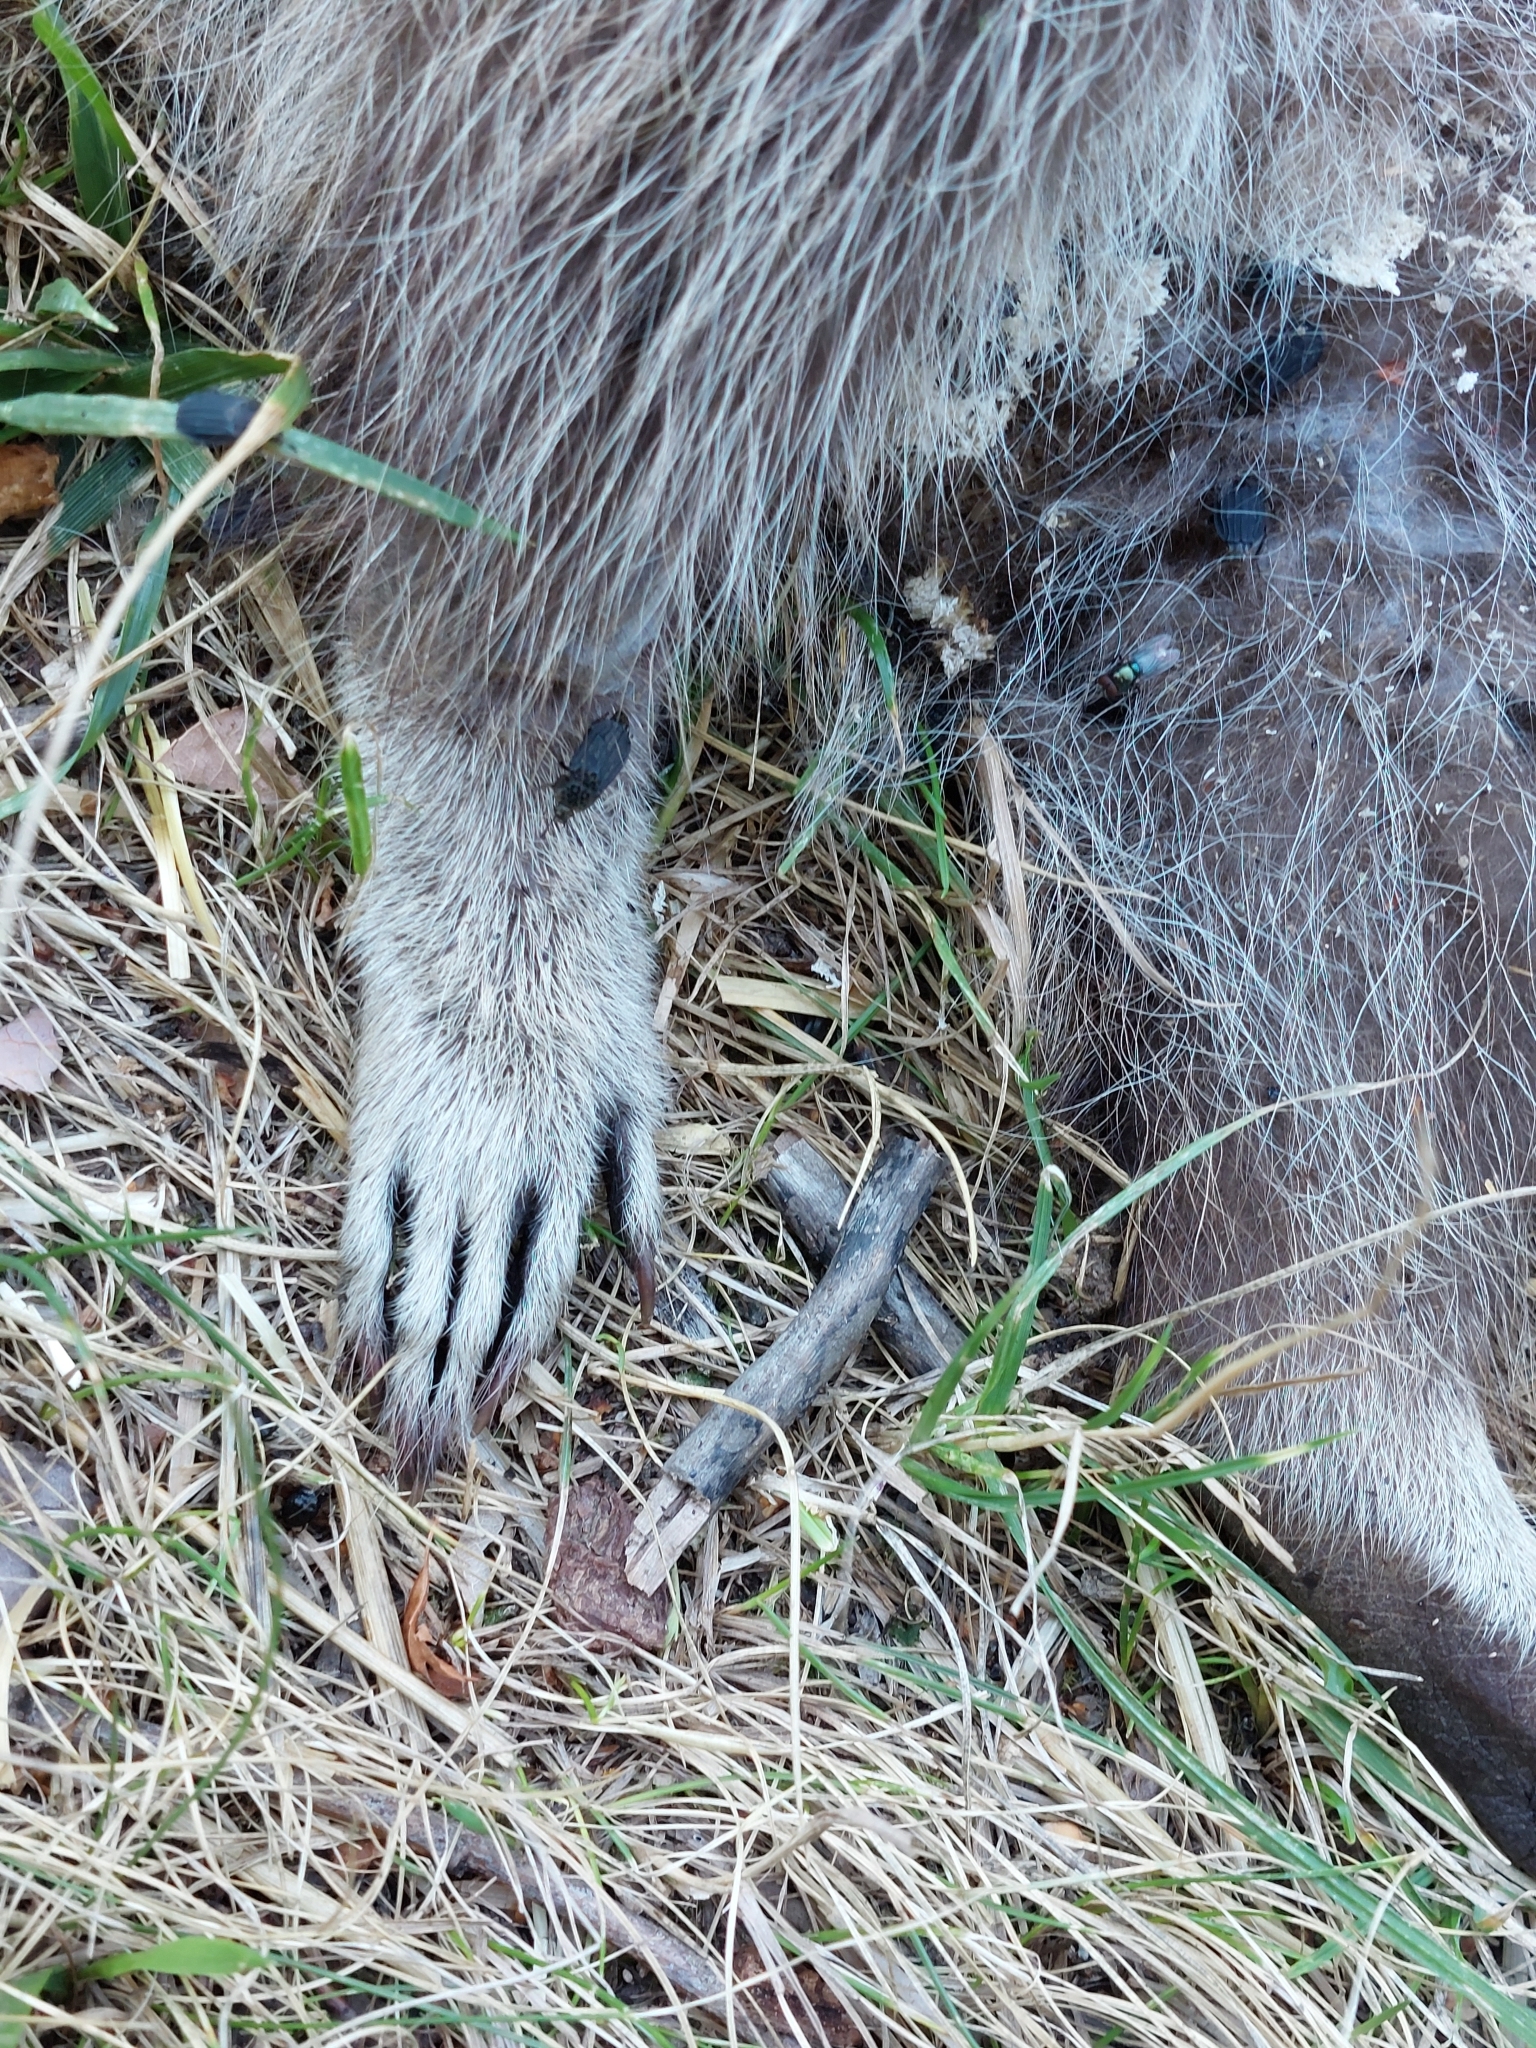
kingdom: Animalia
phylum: Chordata
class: Mammalia
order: Carnivora
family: Procyonidae
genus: Procyon
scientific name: Procyon lotor
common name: Raccoon
